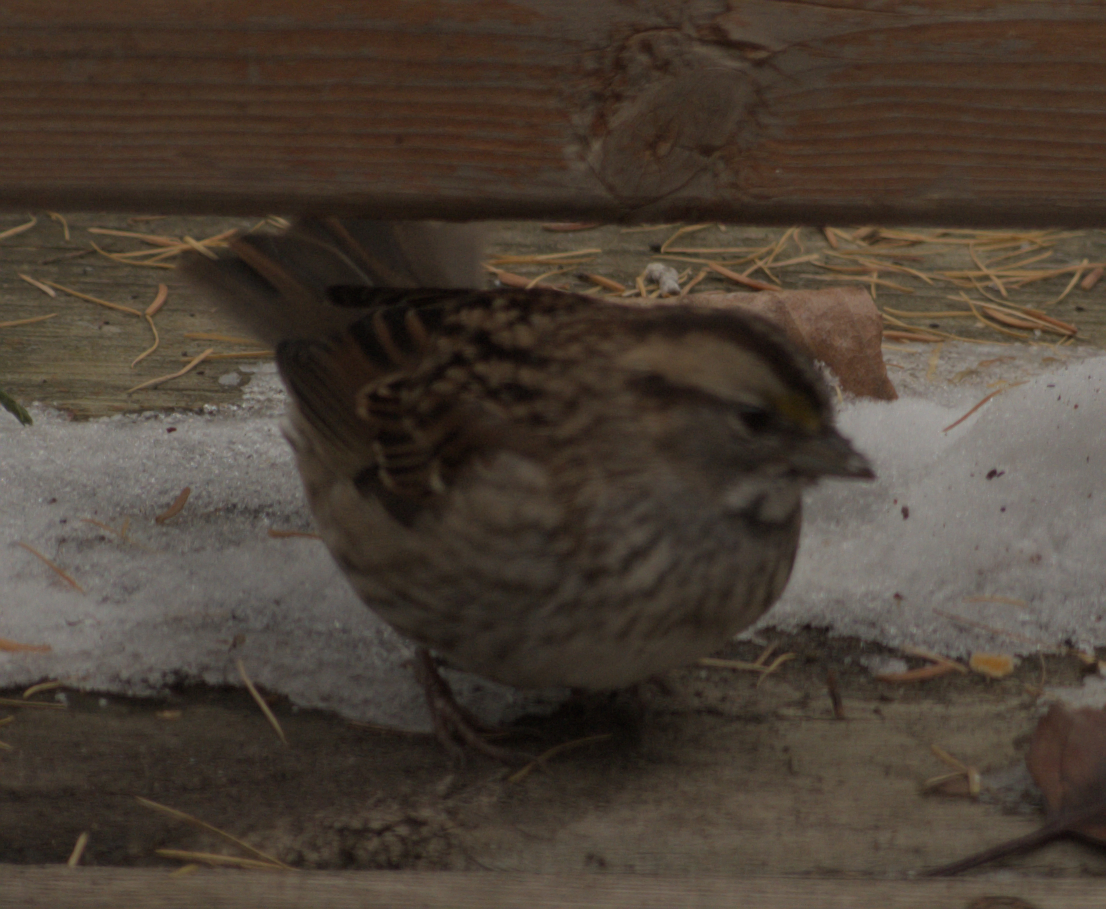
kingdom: Animalia
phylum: Chordata
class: Aves
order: Passeriformes
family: Passerellidae
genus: Zonotrichia
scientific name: Zonotrichia albicollis
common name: White-throated sparrow
